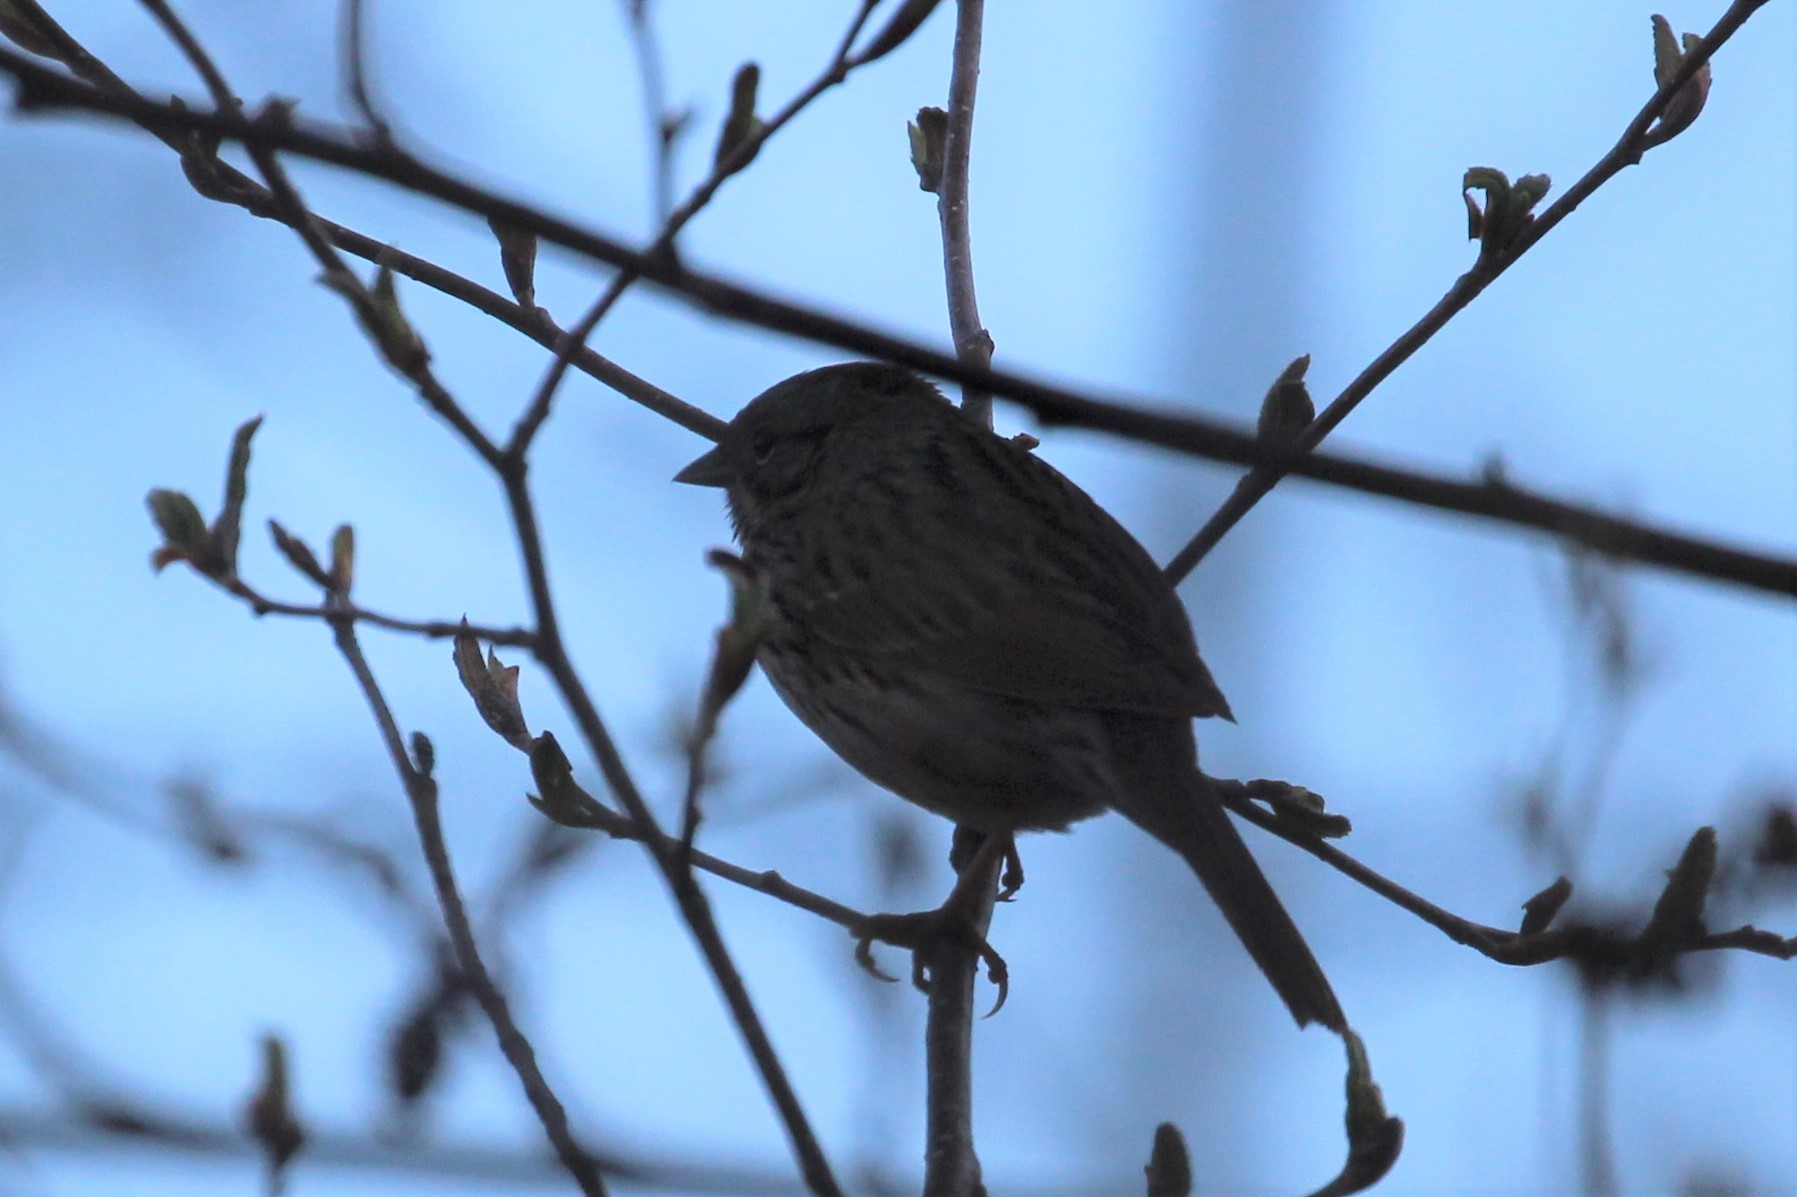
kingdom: Animalia
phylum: Chordata
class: Aves
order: Passeriformes
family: Passerellidae
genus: Melospiza
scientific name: Melospiza lincolnii
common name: Lincoln's sparrow
